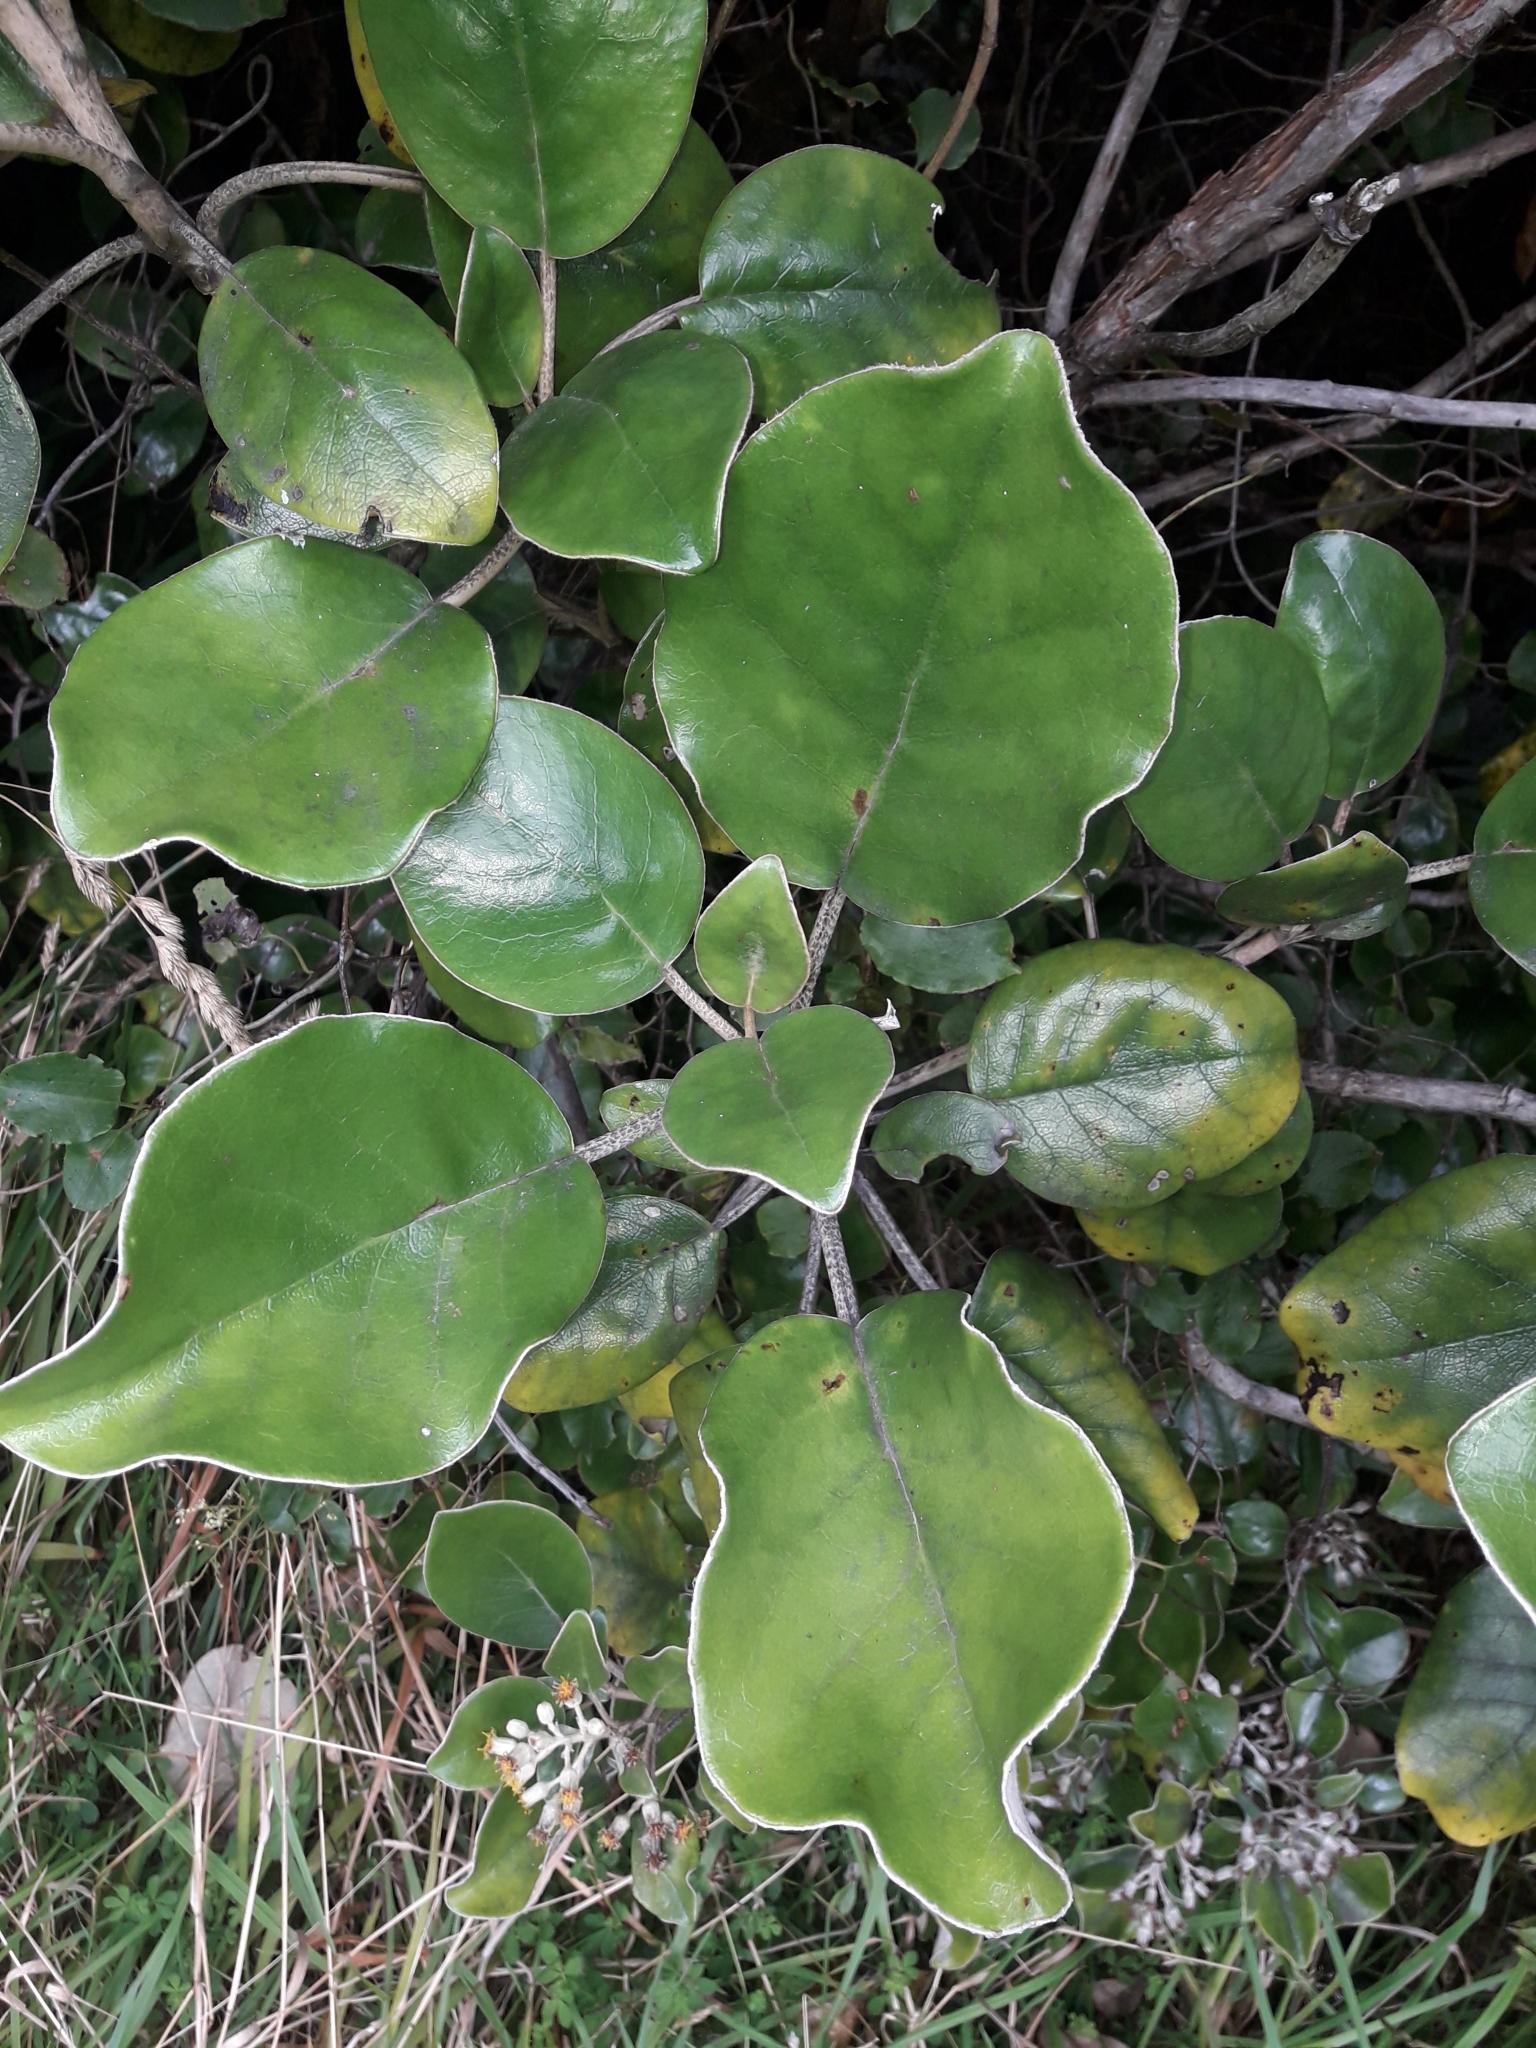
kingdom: Plantae
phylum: Tracheophyta
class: Magnoliopsida
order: Asterales
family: Asteraceae
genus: Brachyglottis
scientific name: Brachyglottis rotundifolia
